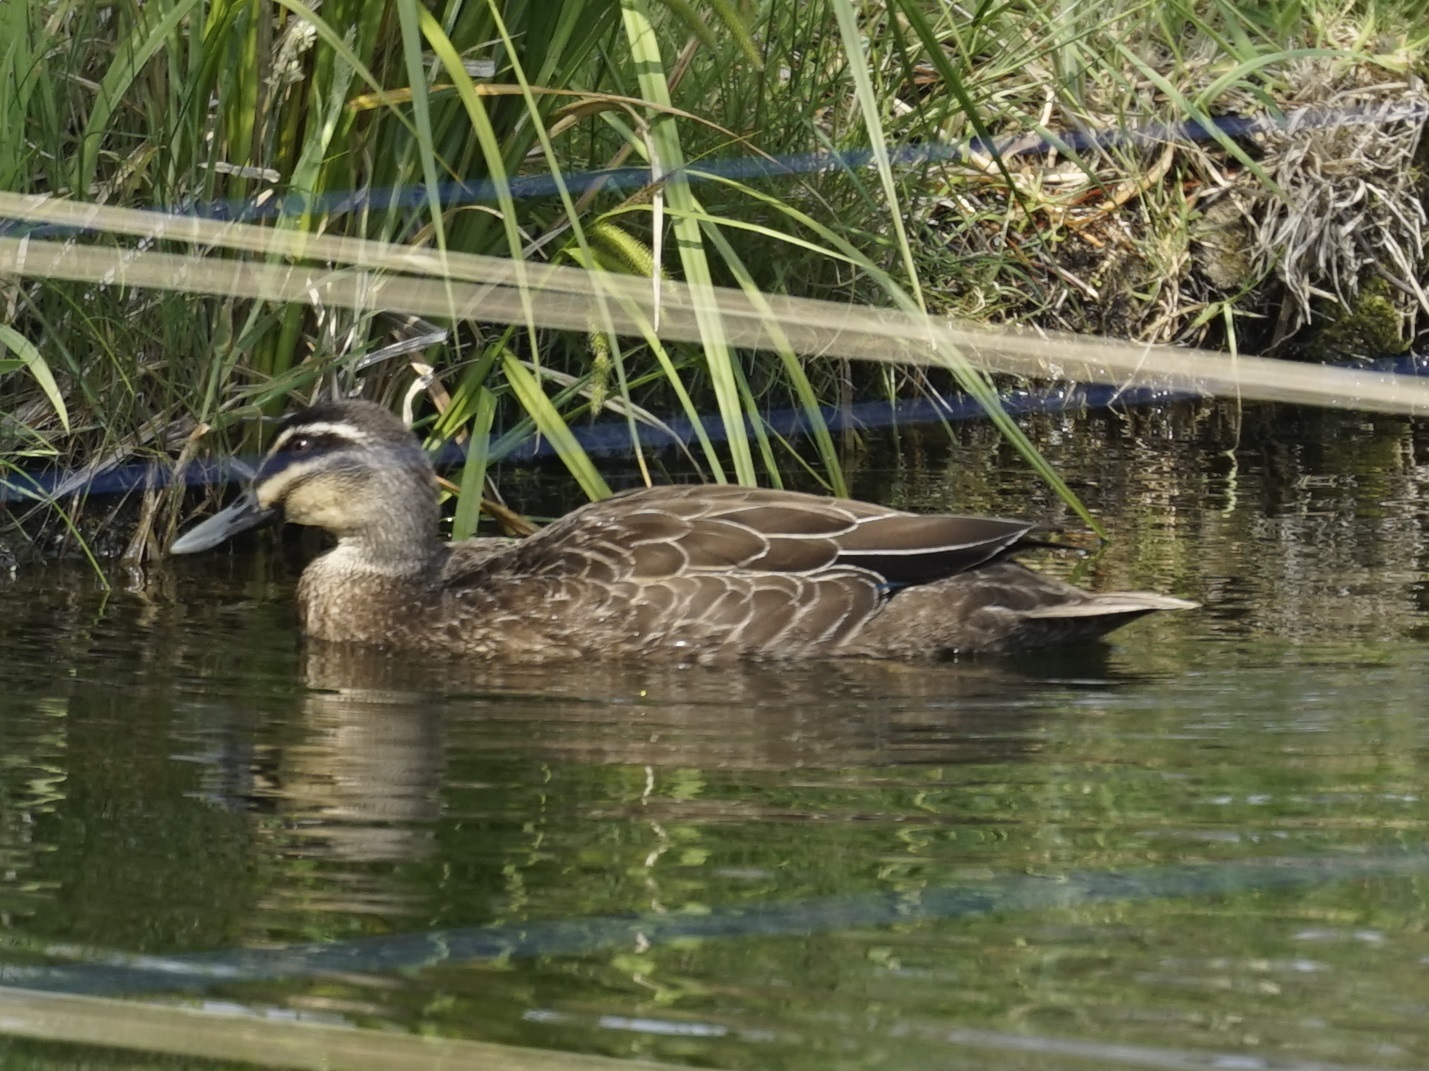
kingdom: Animalia
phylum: Chordata
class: Aves
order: Anseriformes
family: Anatidae
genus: Anas
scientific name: Anas superciliosa
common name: Pacific black duck
